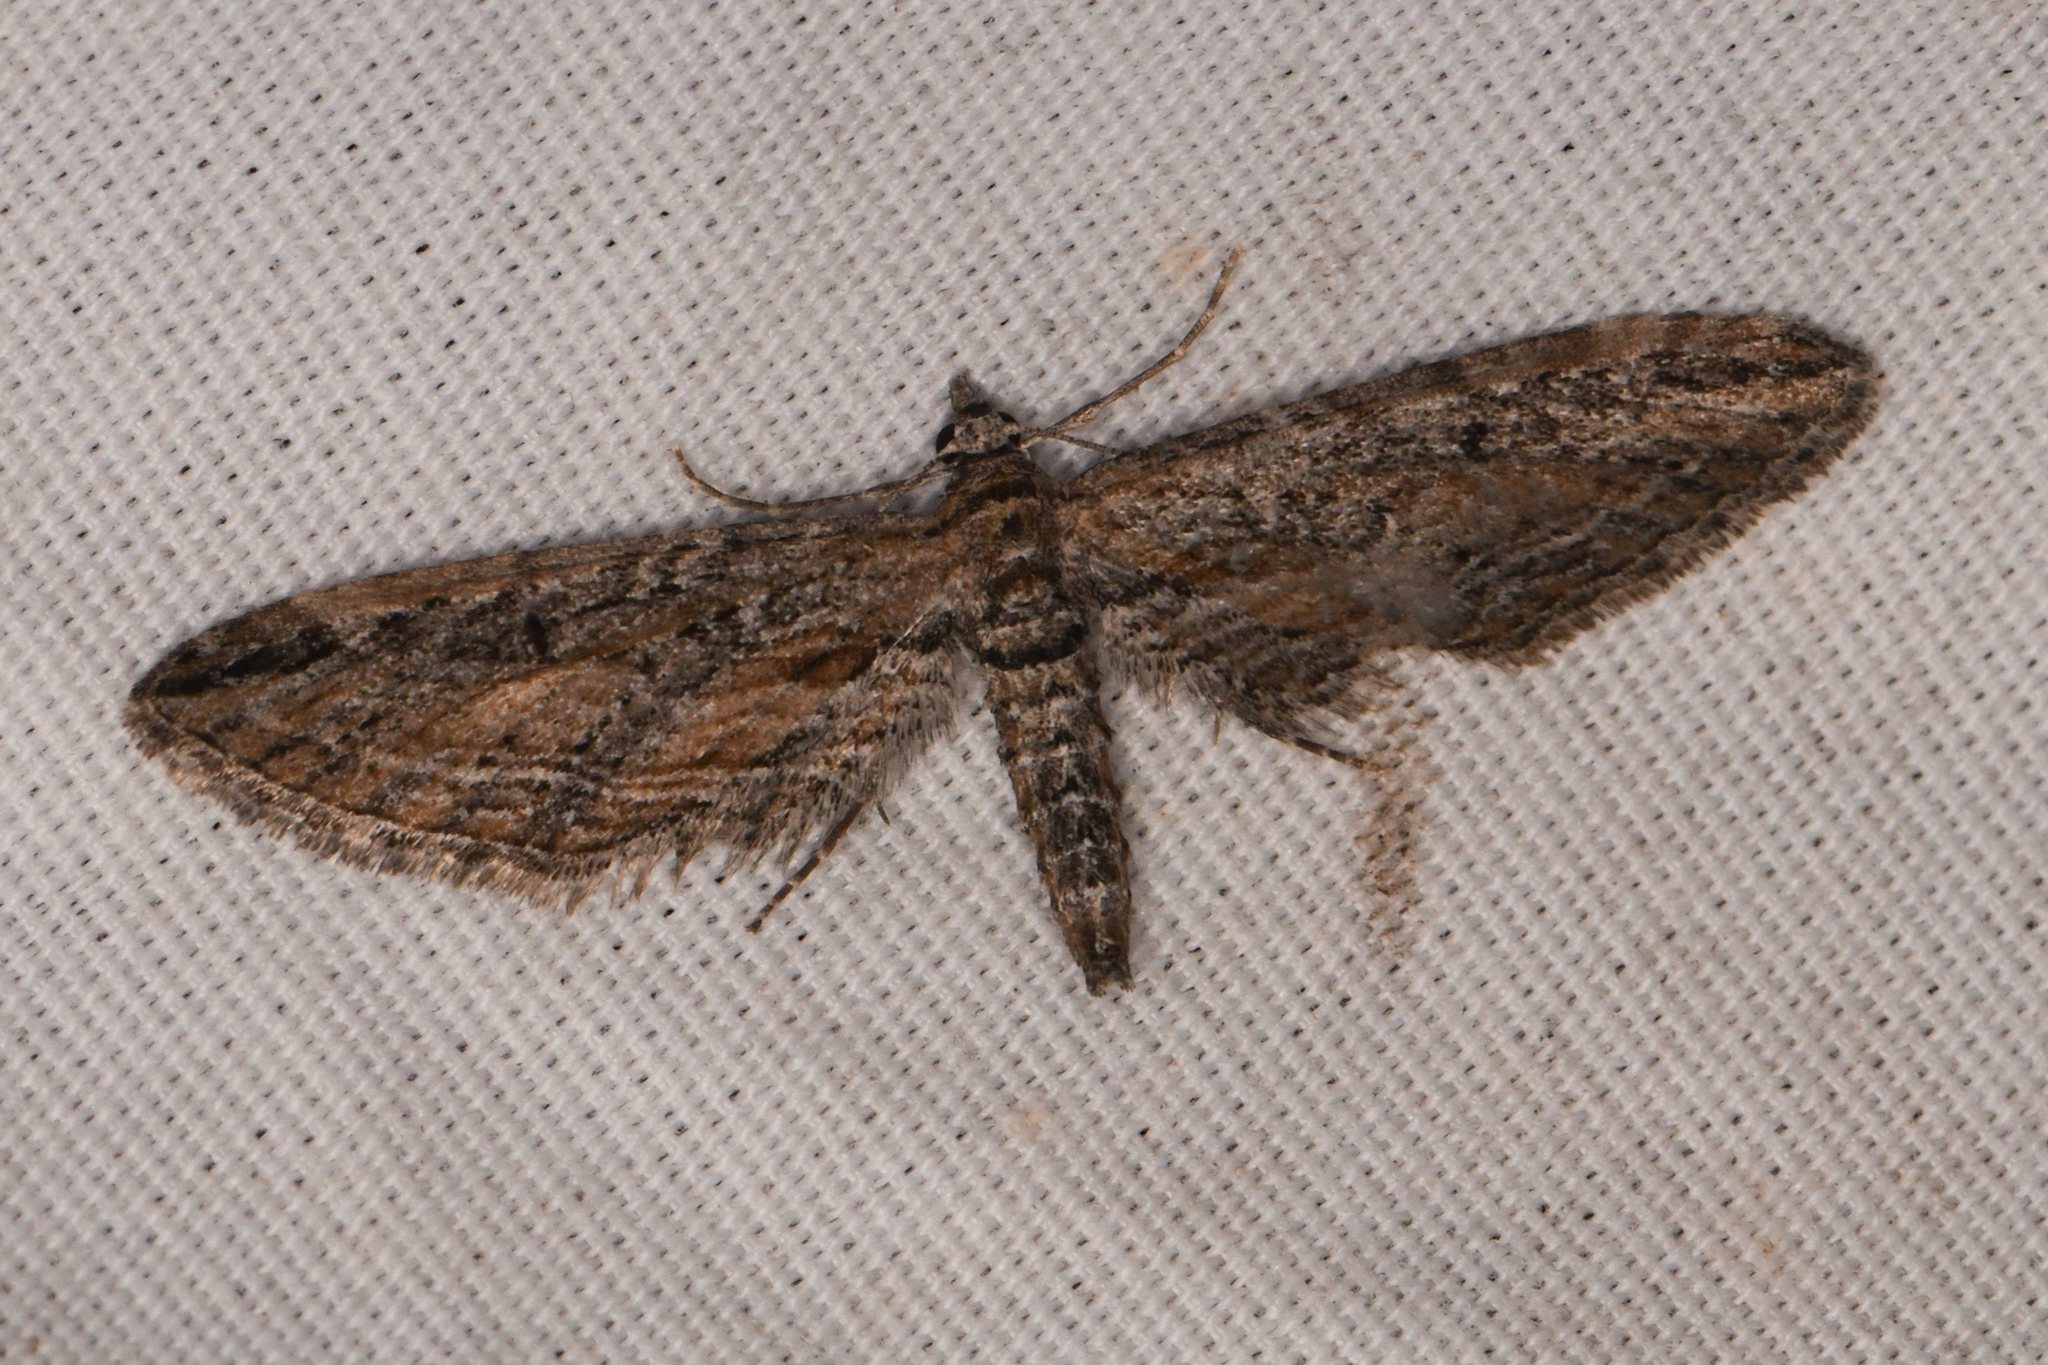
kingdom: Animalia
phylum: Arthropoda
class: Insecta
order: Lepidoptera
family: Geometridae
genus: Eupithecia
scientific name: Eupithecia acutipennis
